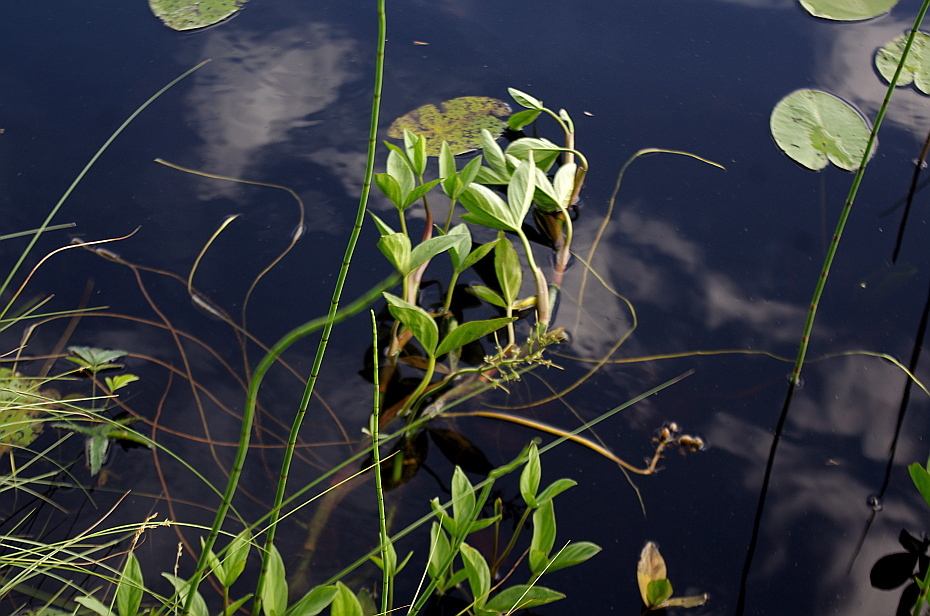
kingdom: Plantae
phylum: Tracheophyta
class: Magnoliopsida
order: Asterales
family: Menyanthaceae
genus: Menyanthes
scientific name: Menyanthes trifoliata
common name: Bogbean
